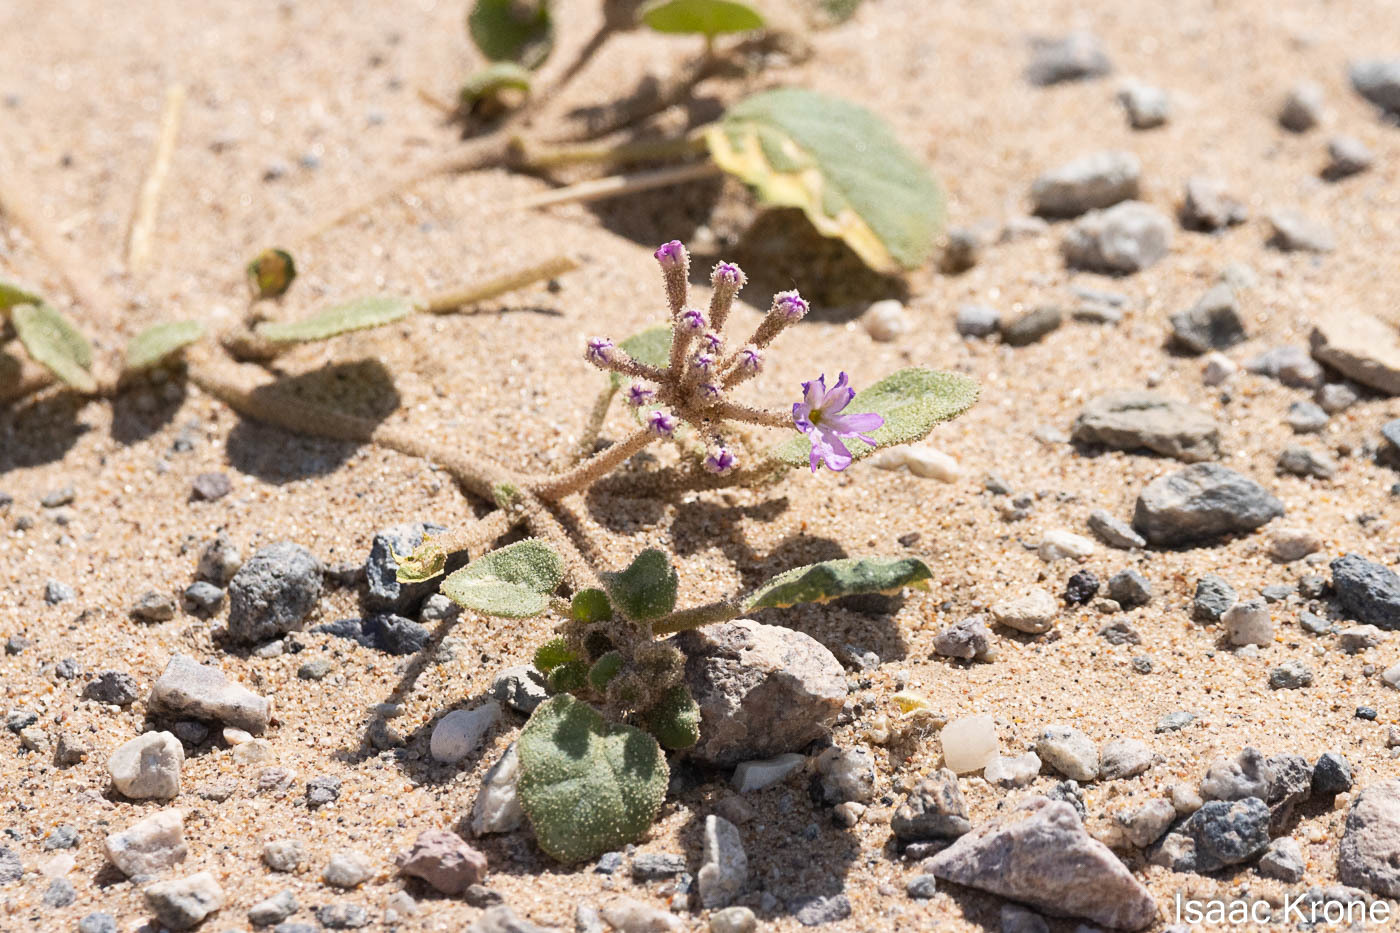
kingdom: Plantae
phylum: Tracheophyta
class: Magnoliopsida
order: Caryophyllales
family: Nyctaginaceae
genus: Abronia
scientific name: Abronia villosa
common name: Desert sand-verbena
